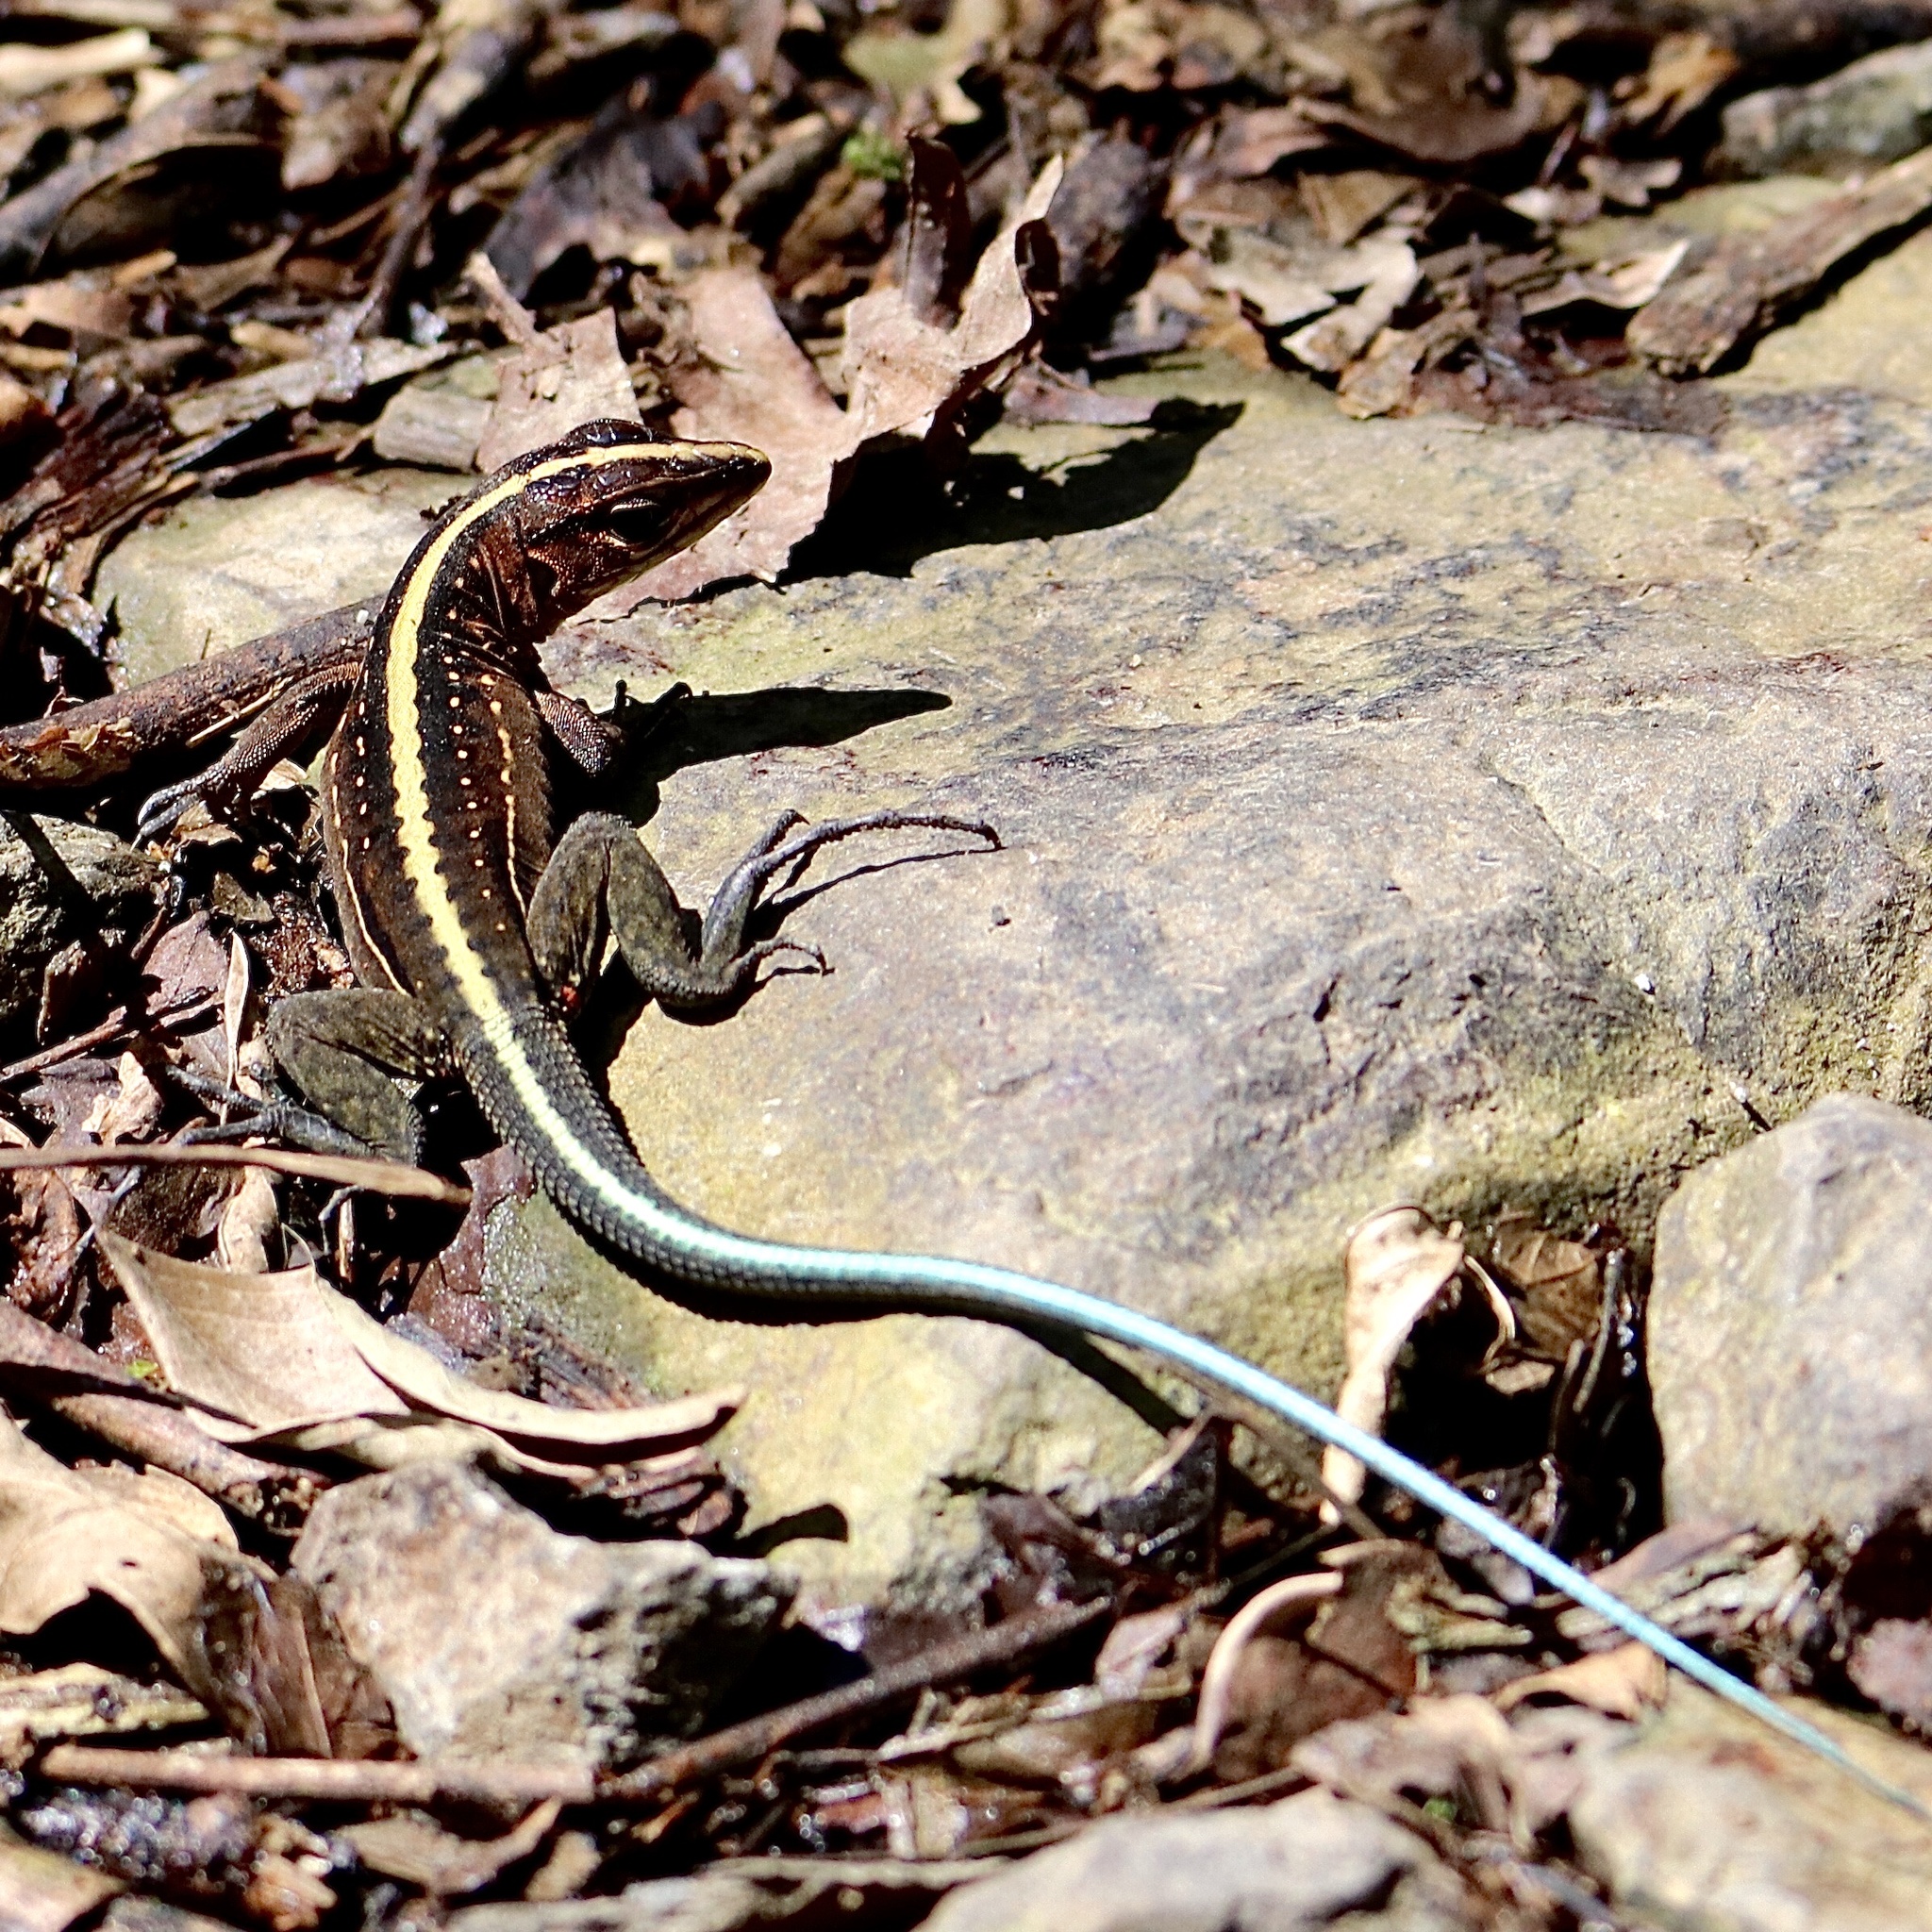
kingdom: Animalia
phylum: Chordata
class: Squamata
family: Teiidae
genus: Holcosus
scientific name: Holcosus festivus
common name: Middle american ameiva
